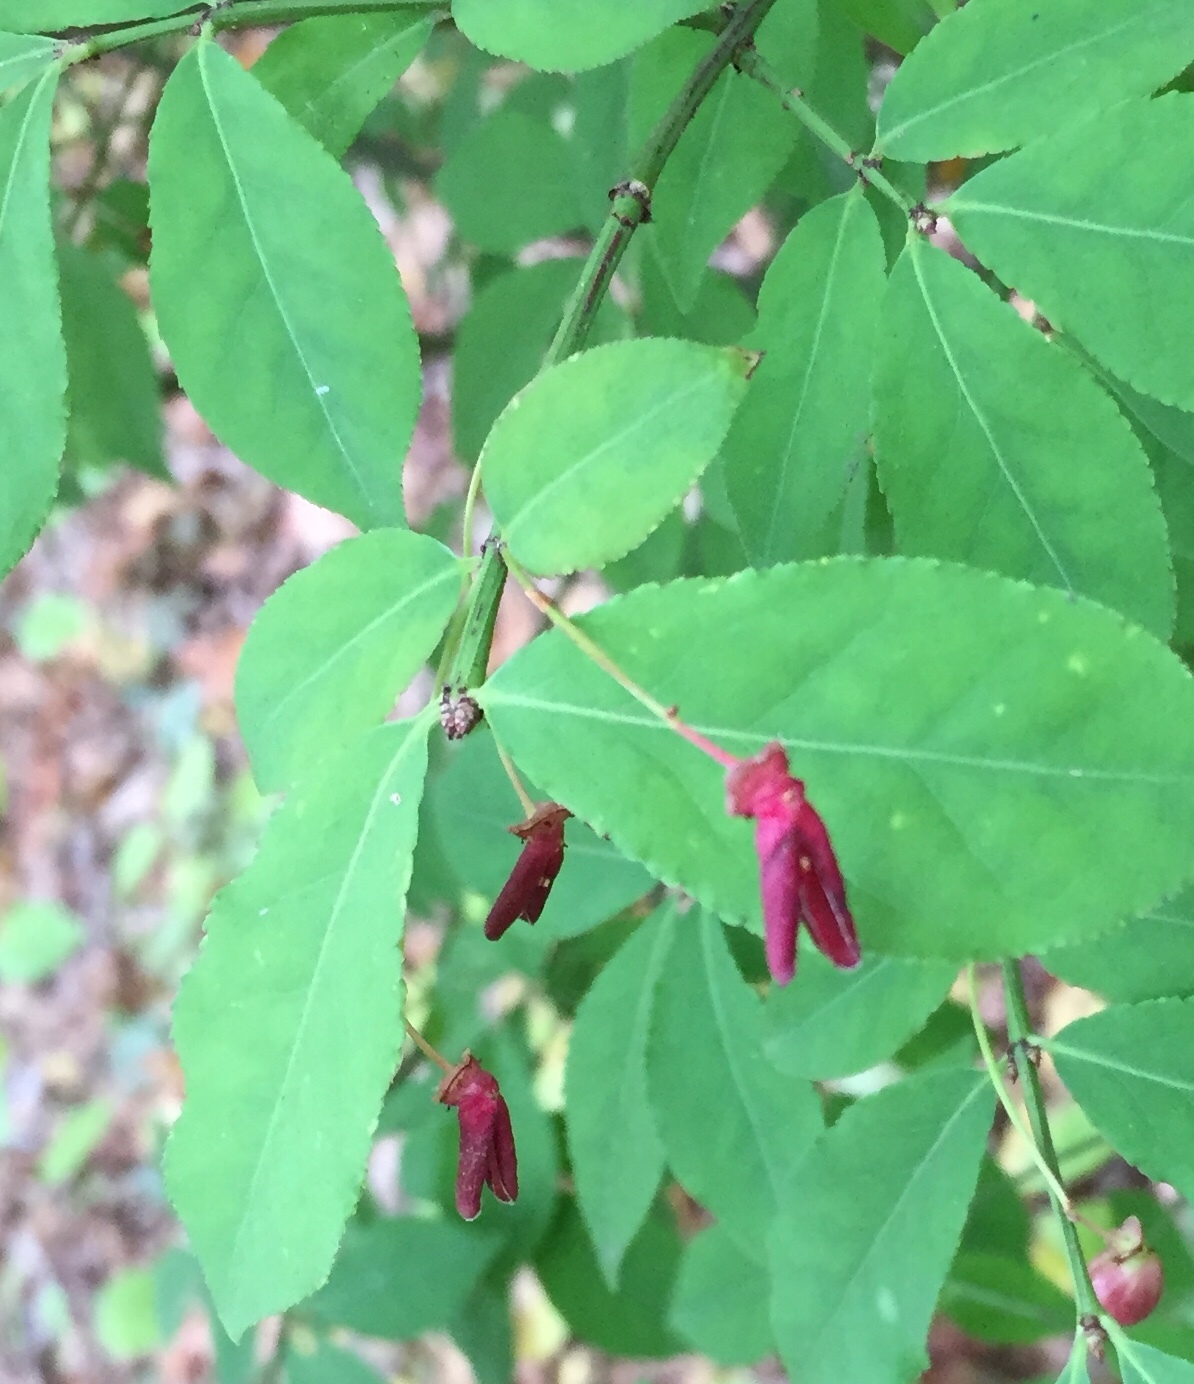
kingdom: Plantae
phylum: Tracheophyta
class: Magnoliopsida
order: Celastrales
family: Celastraceae
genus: Euonymus
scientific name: Euonymus alatus
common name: Winged euonymus
